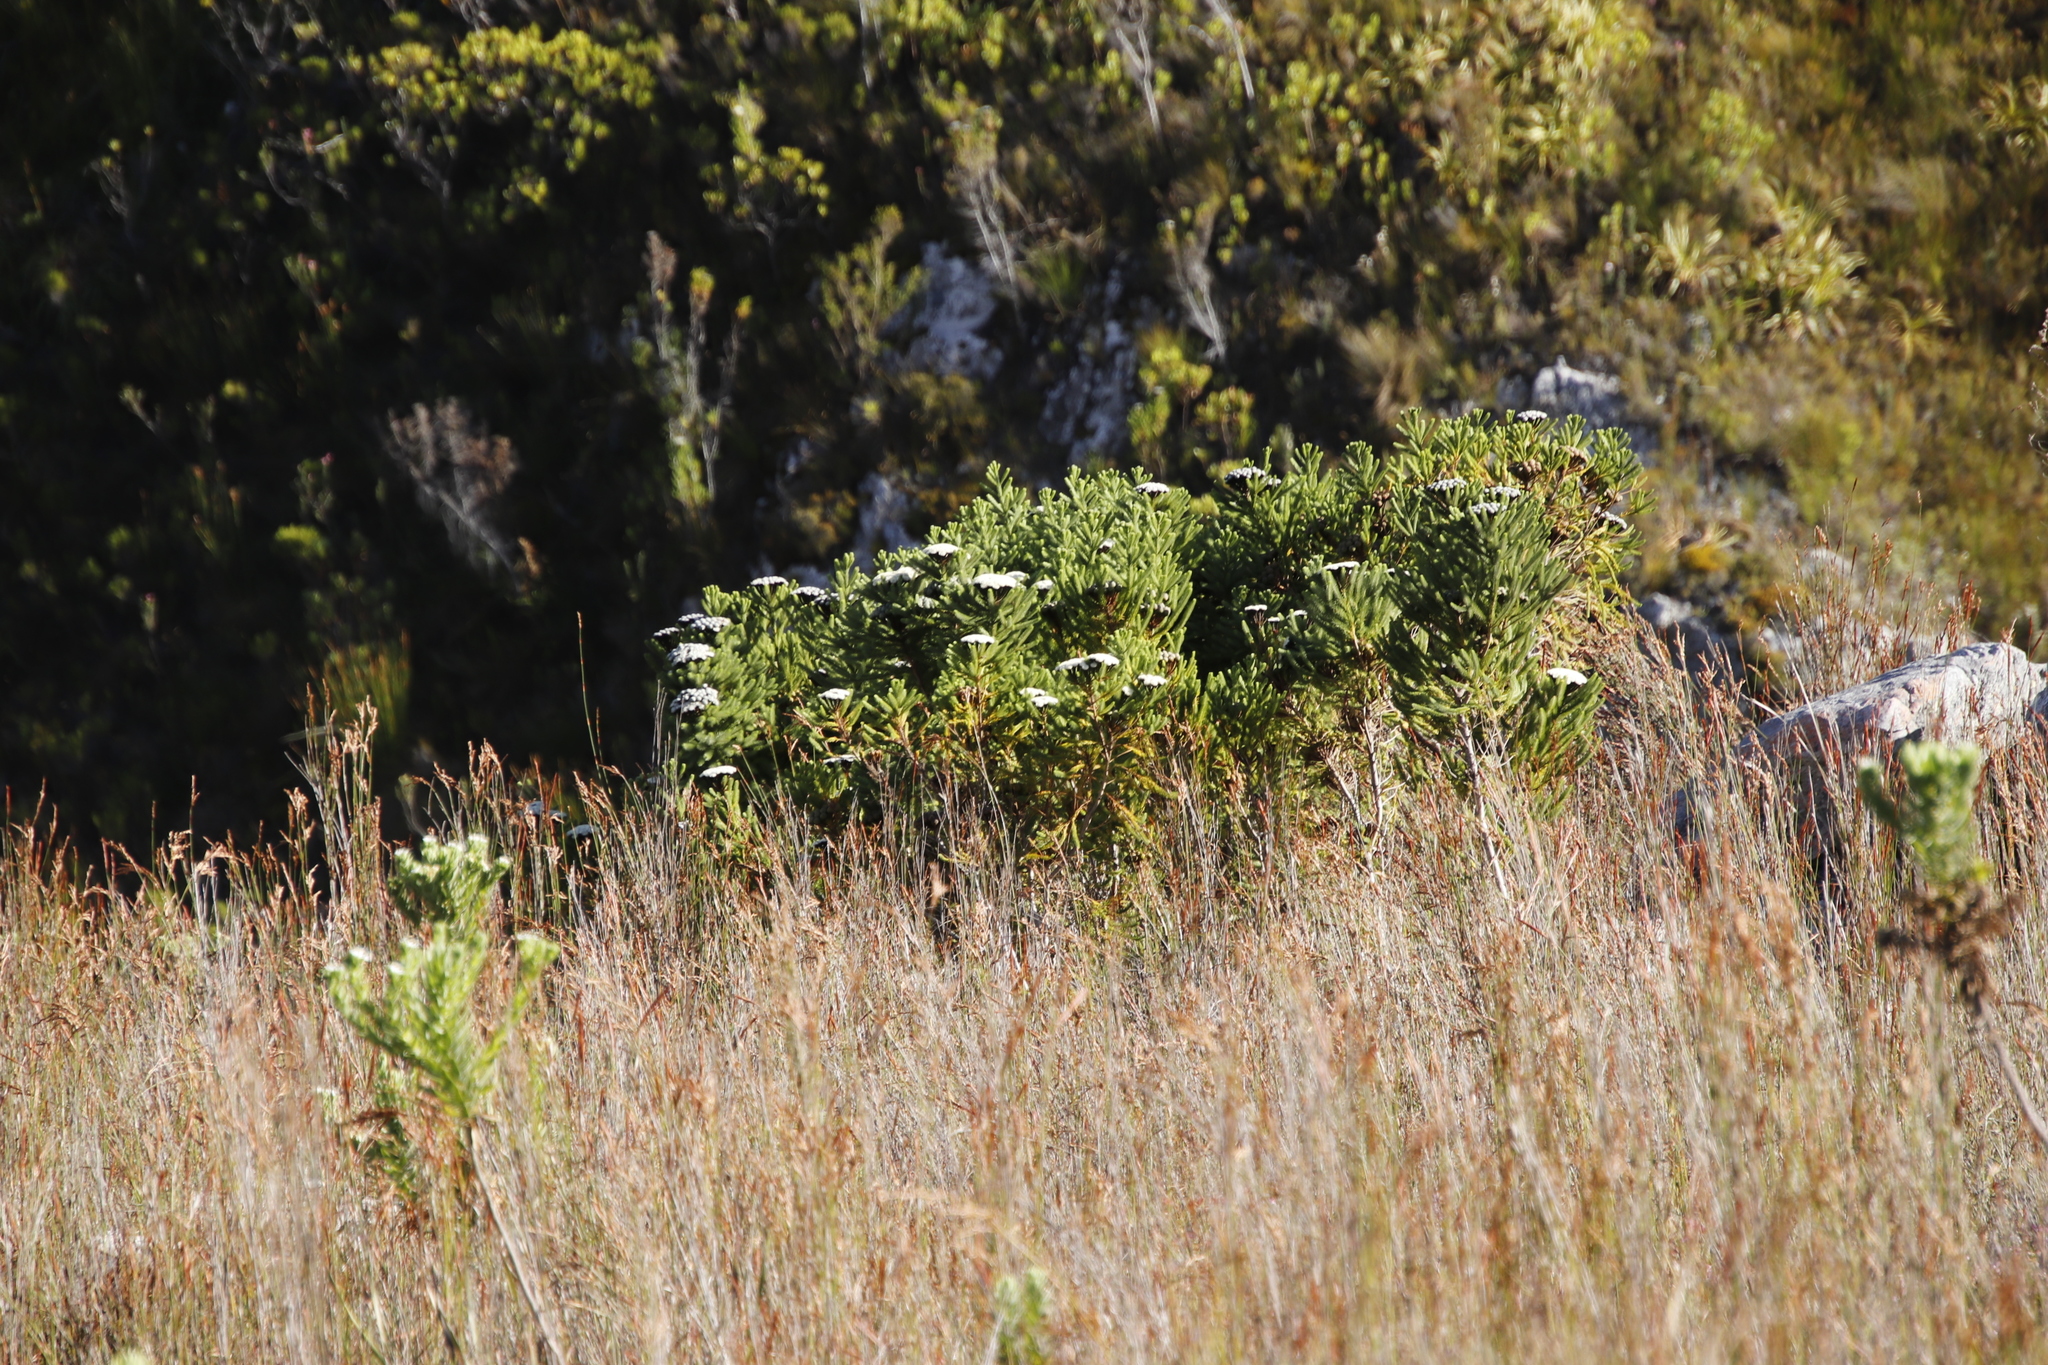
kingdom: Plantae
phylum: Tracheophyta
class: Magnoliopsida
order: Bruniales
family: Bruniaceae
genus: Berzelia
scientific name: Berzelia albiflora
